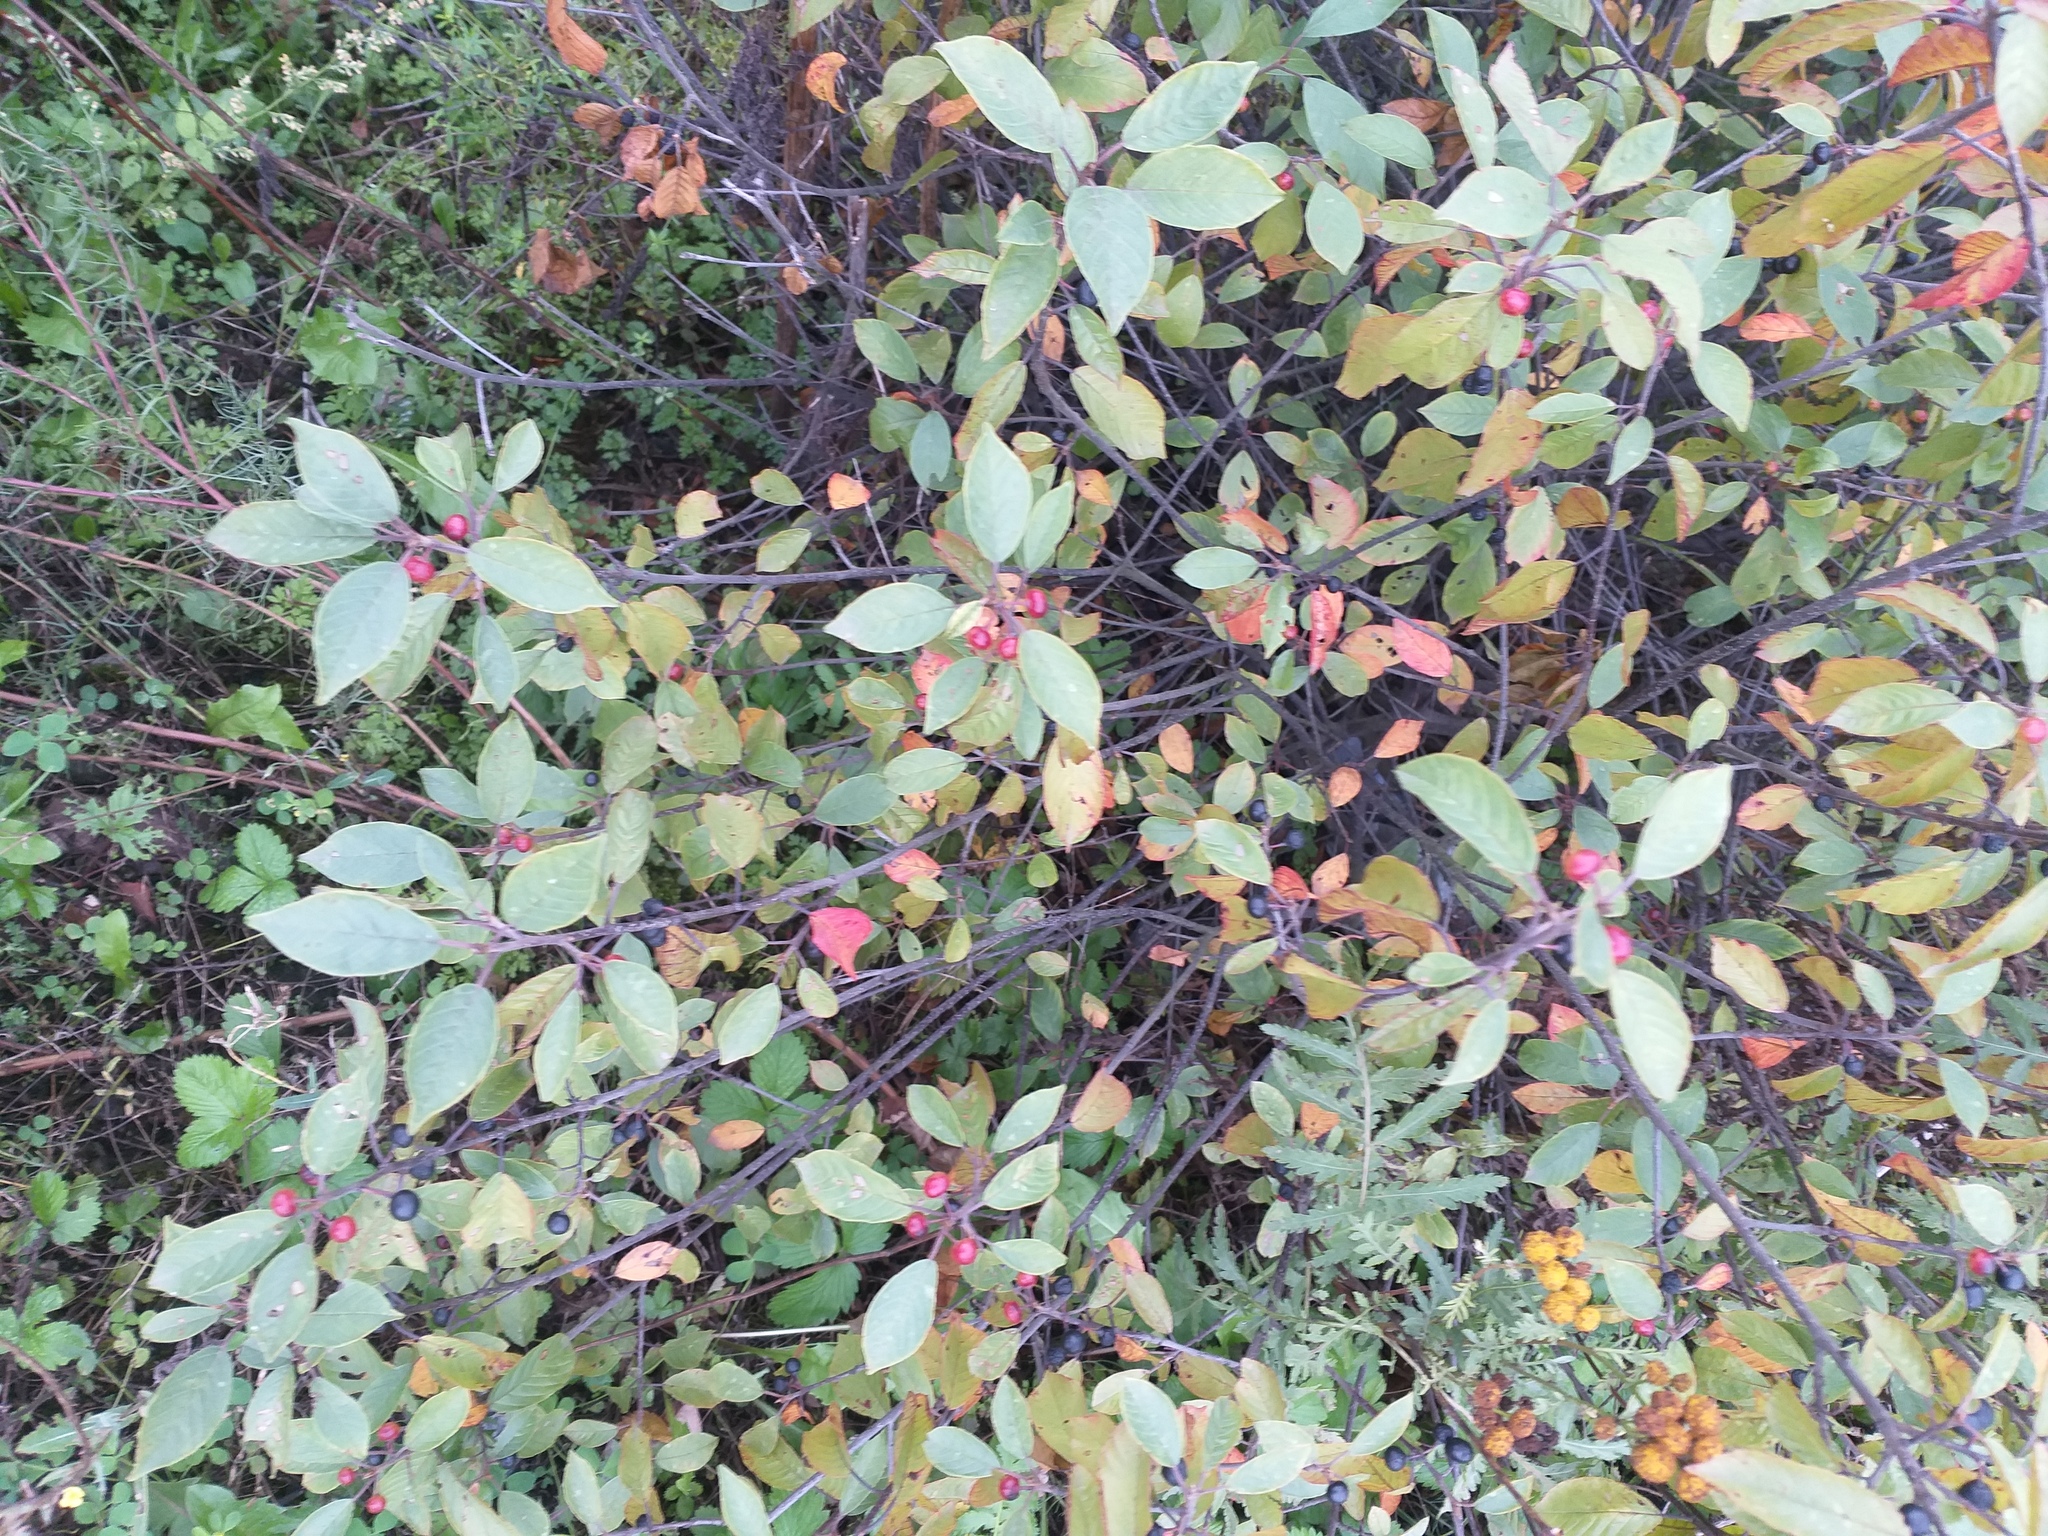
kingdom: Plantae
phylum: Tracheophyta
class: Magnoliopsida
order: Rosales
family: Rhamnaceae
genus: Frangula
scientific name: Frangula alnus
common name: Alder buckthorn
